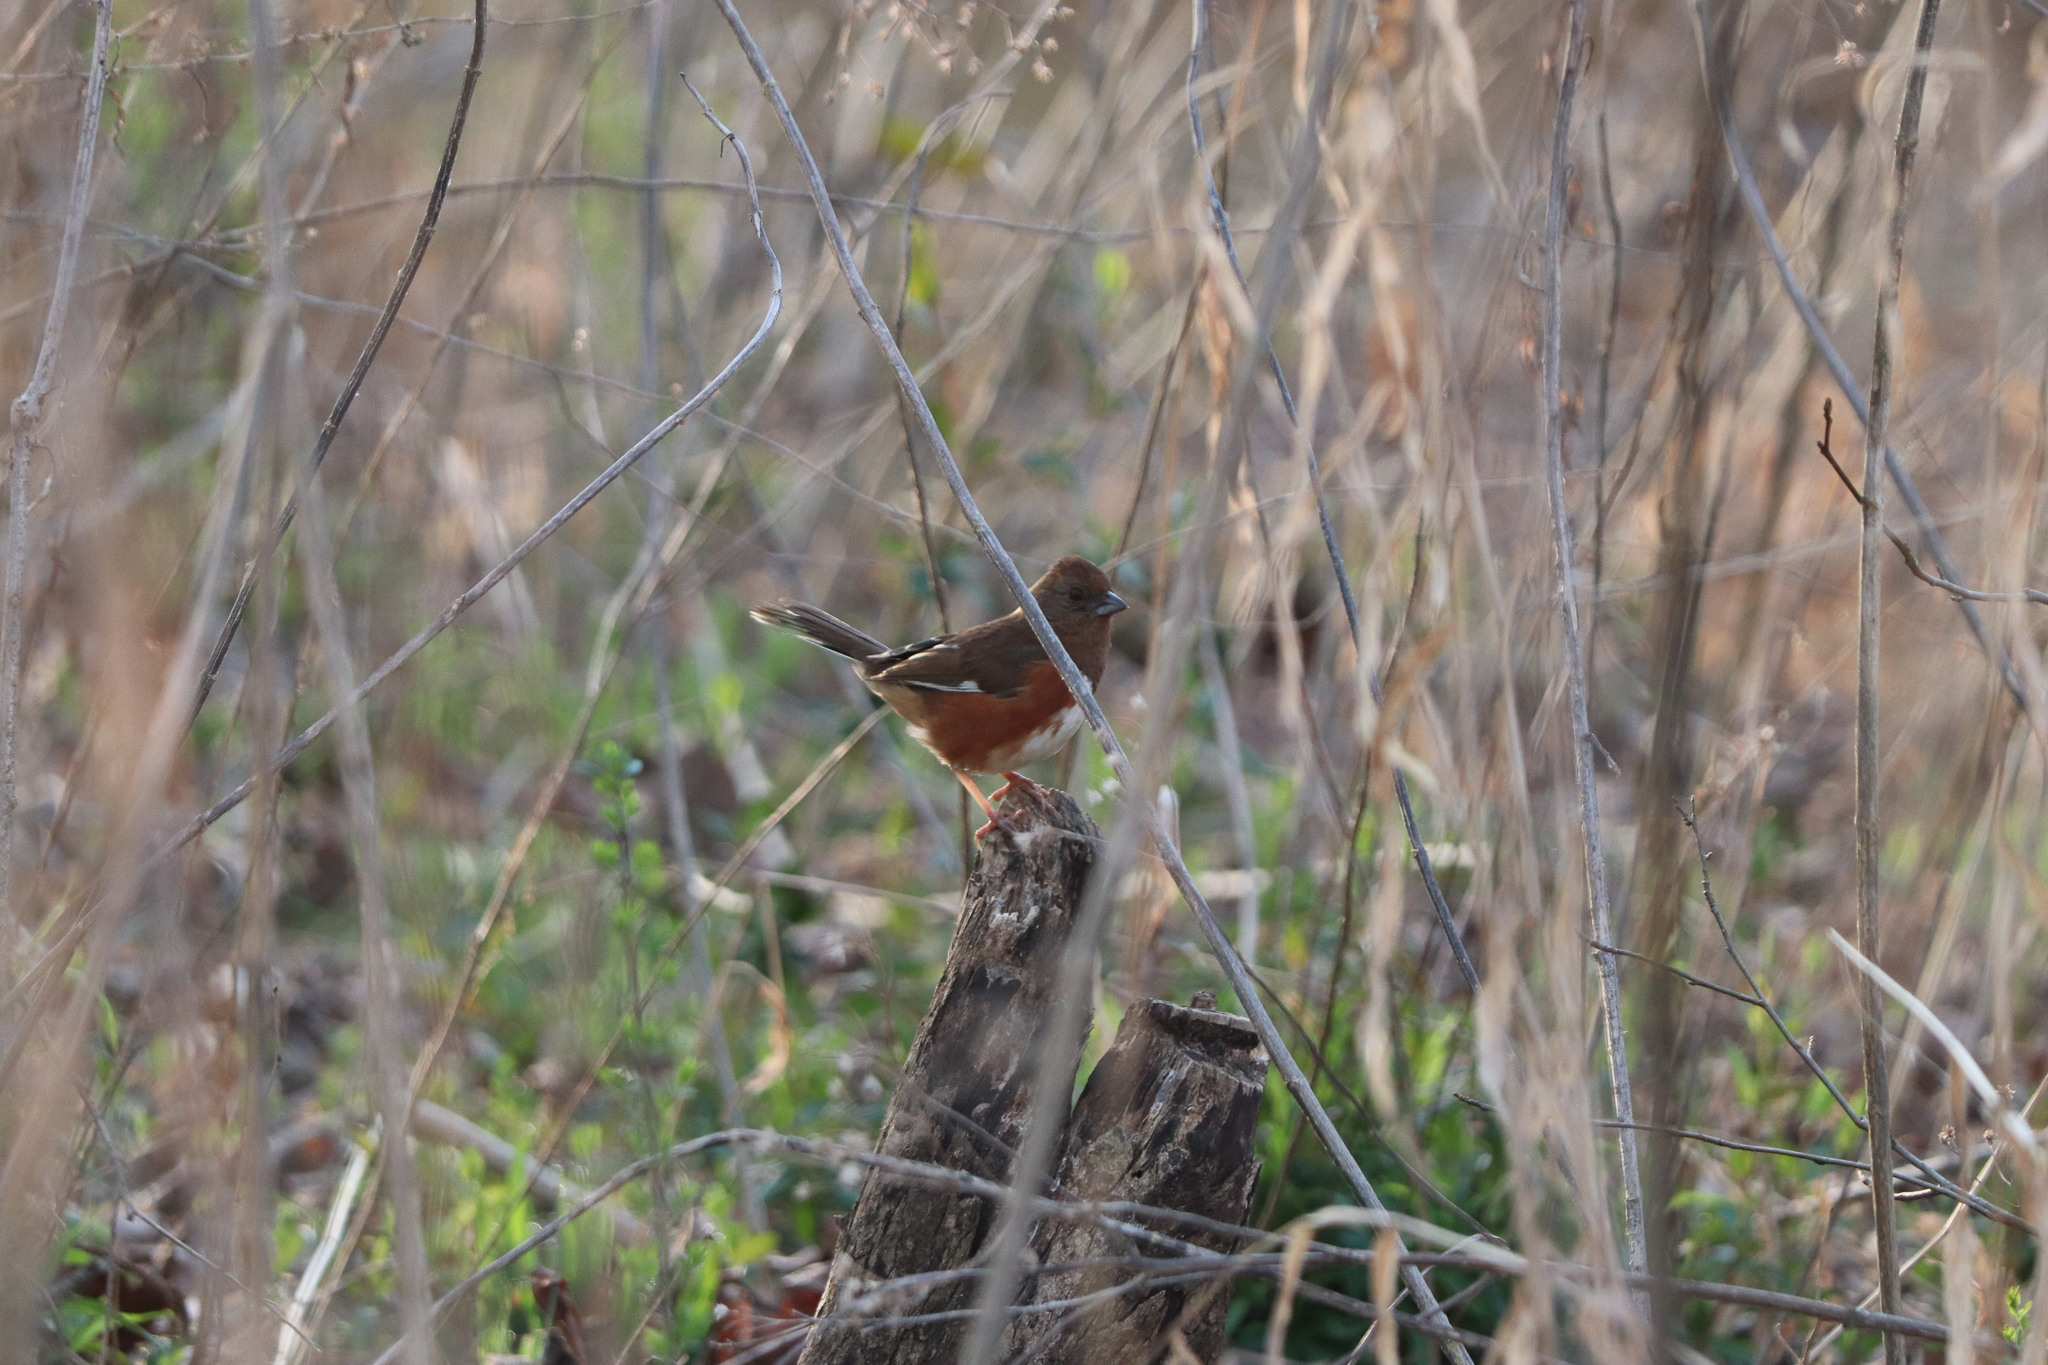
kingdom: Animalia
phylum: Chordata
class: Aves
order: Passeriformes
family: Passerellidae
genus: Pipilo
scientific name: Pipilo erythrophthalmus
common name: Eastern towhee
